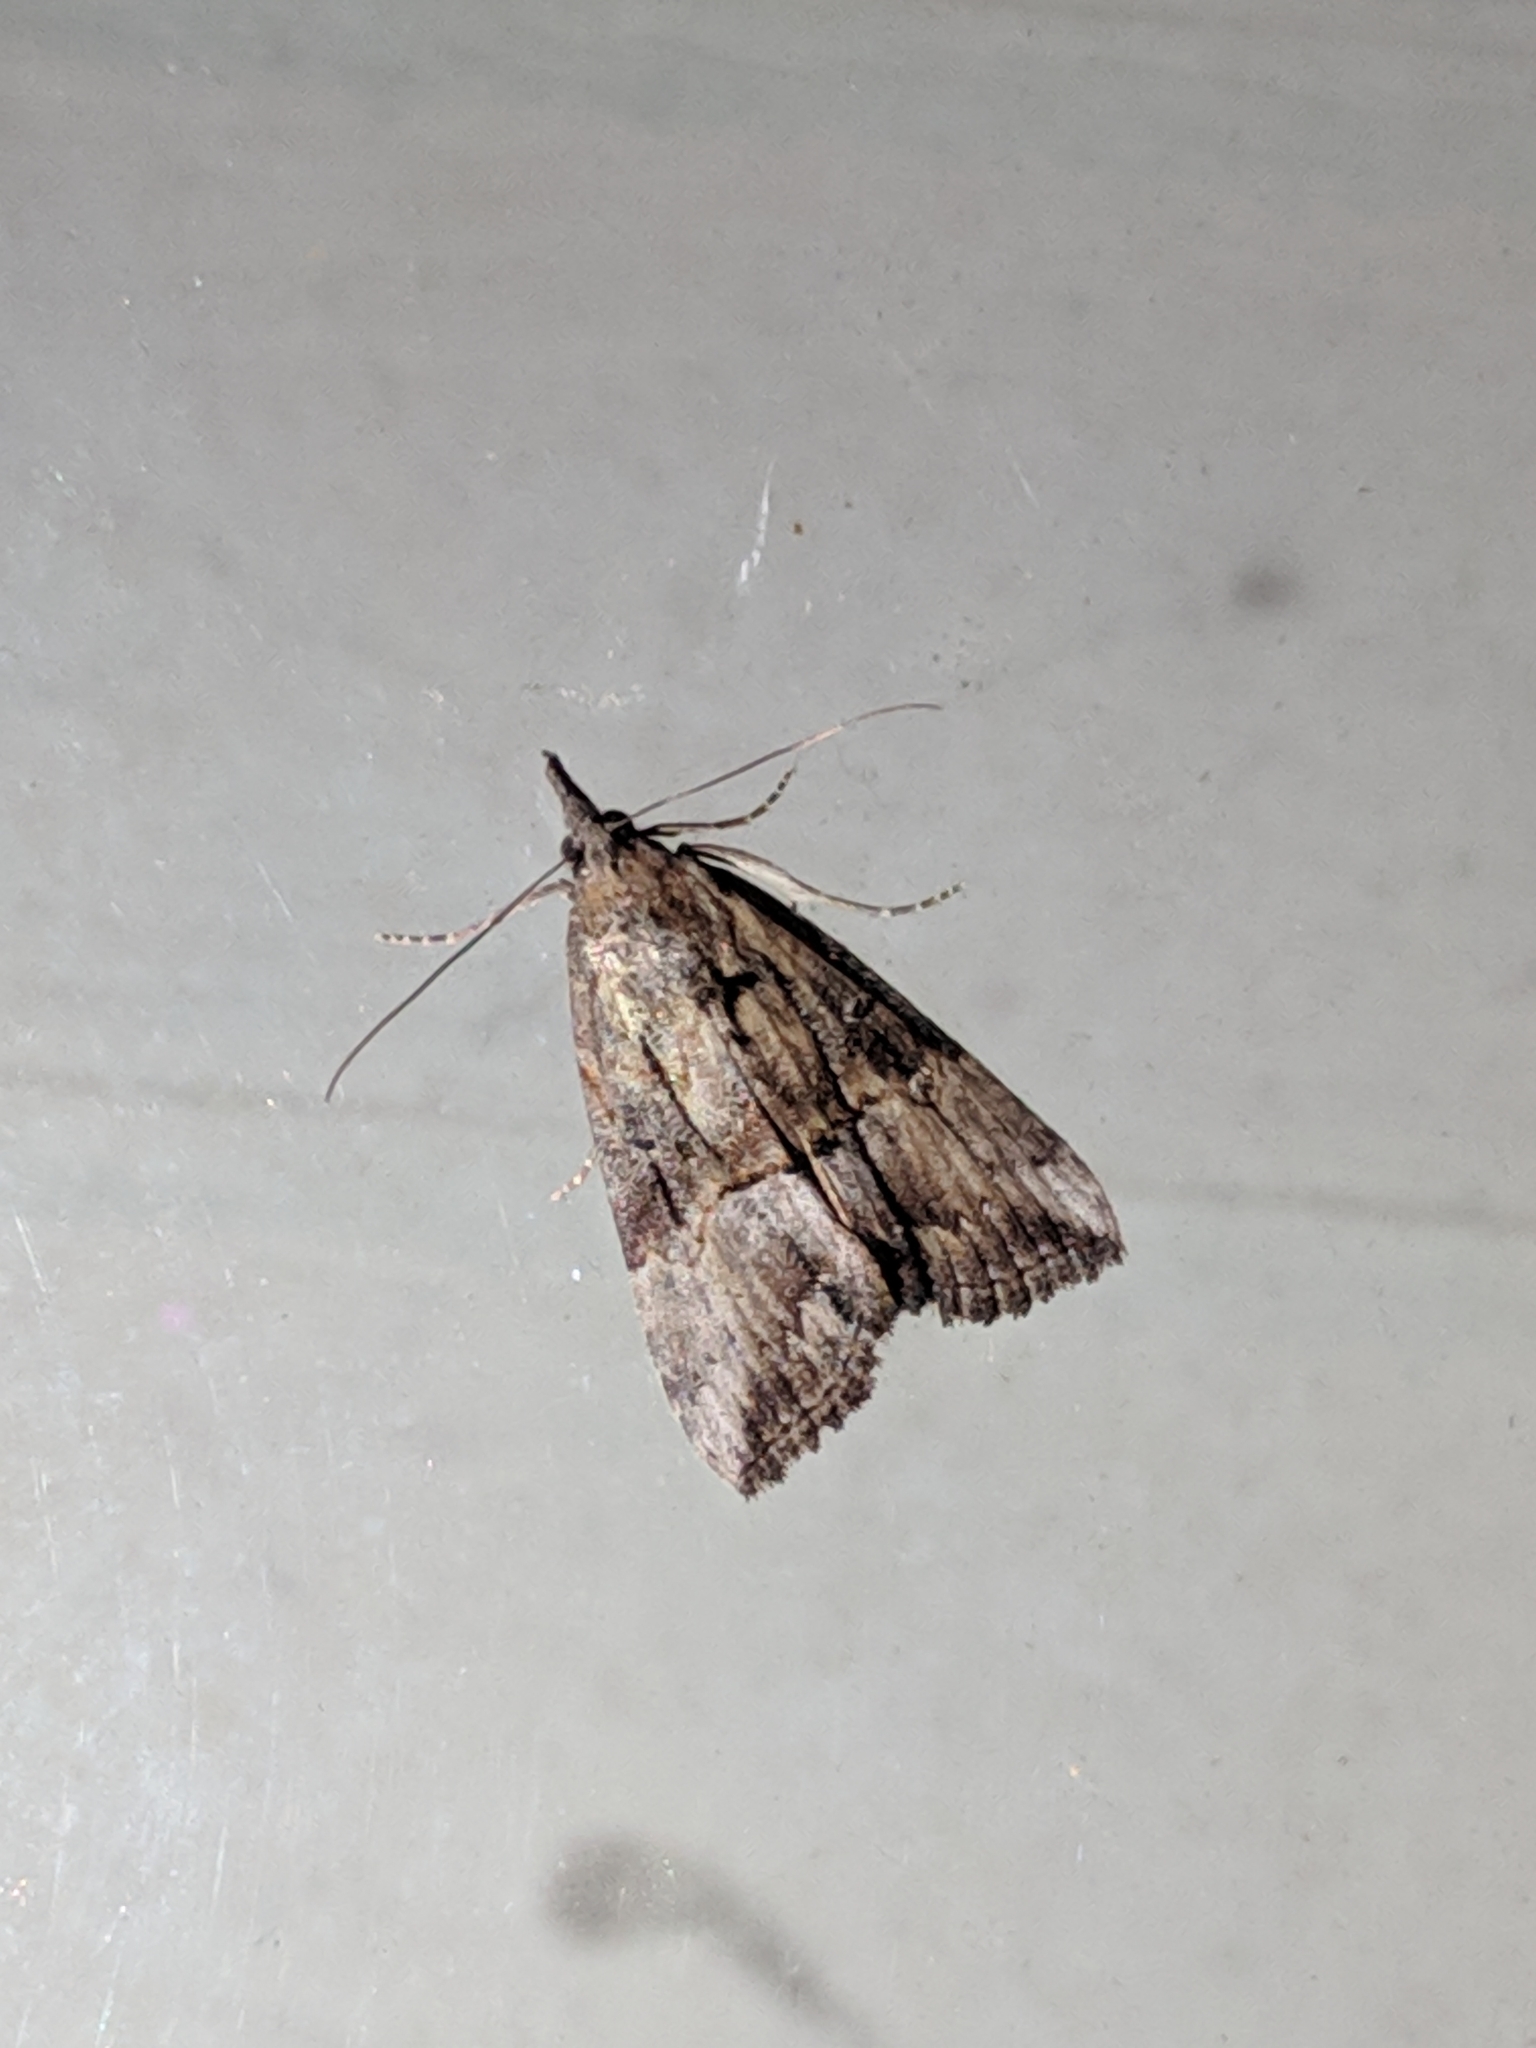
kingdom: Animalia
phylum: Arthropoda
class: Insecta
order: Lepidoptera
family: Erebidae
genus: Hypena
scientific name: Hypena scabra
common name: Green cloverworm
